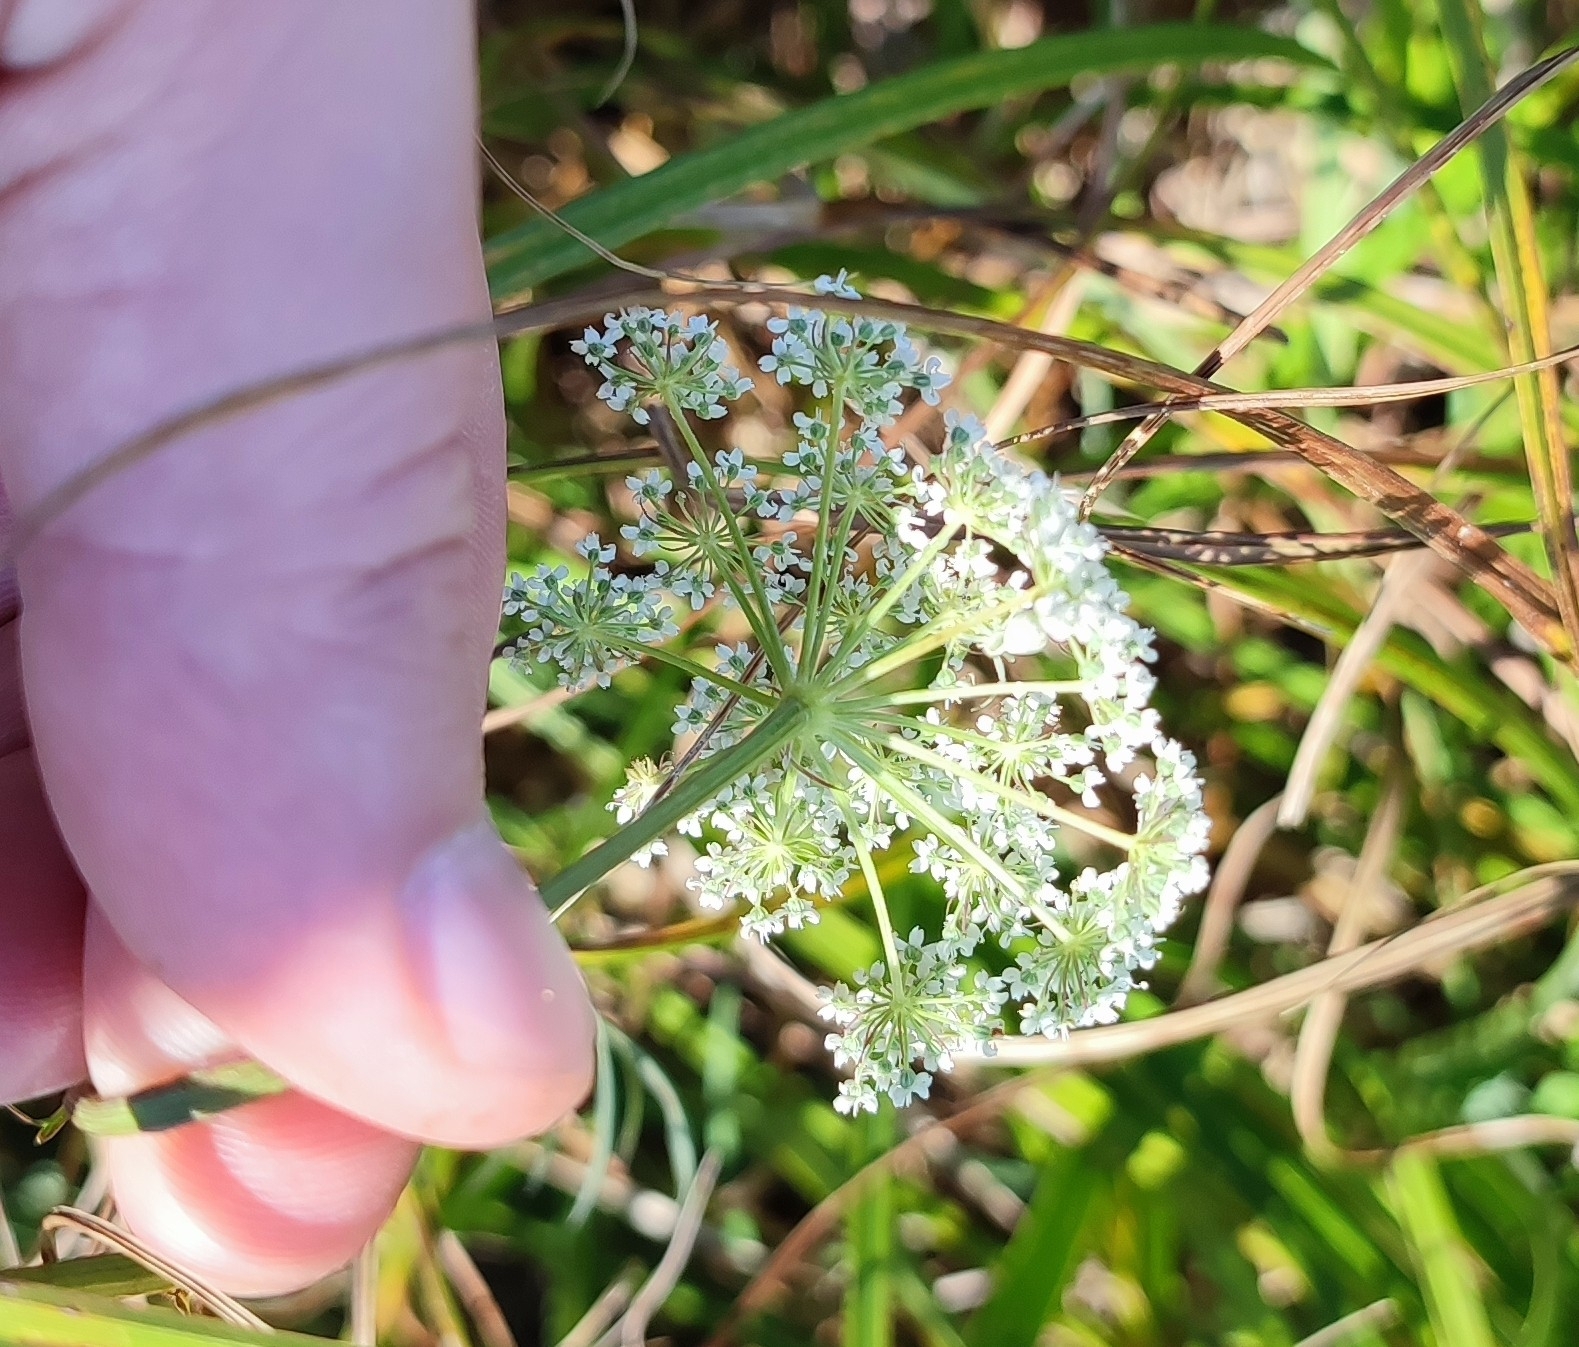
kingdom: Plantae
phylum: Tracheophyta
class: Magnoliopsida
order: Apiales
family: Apiaceae
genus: Kadenia
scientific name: Kadenia dubia
